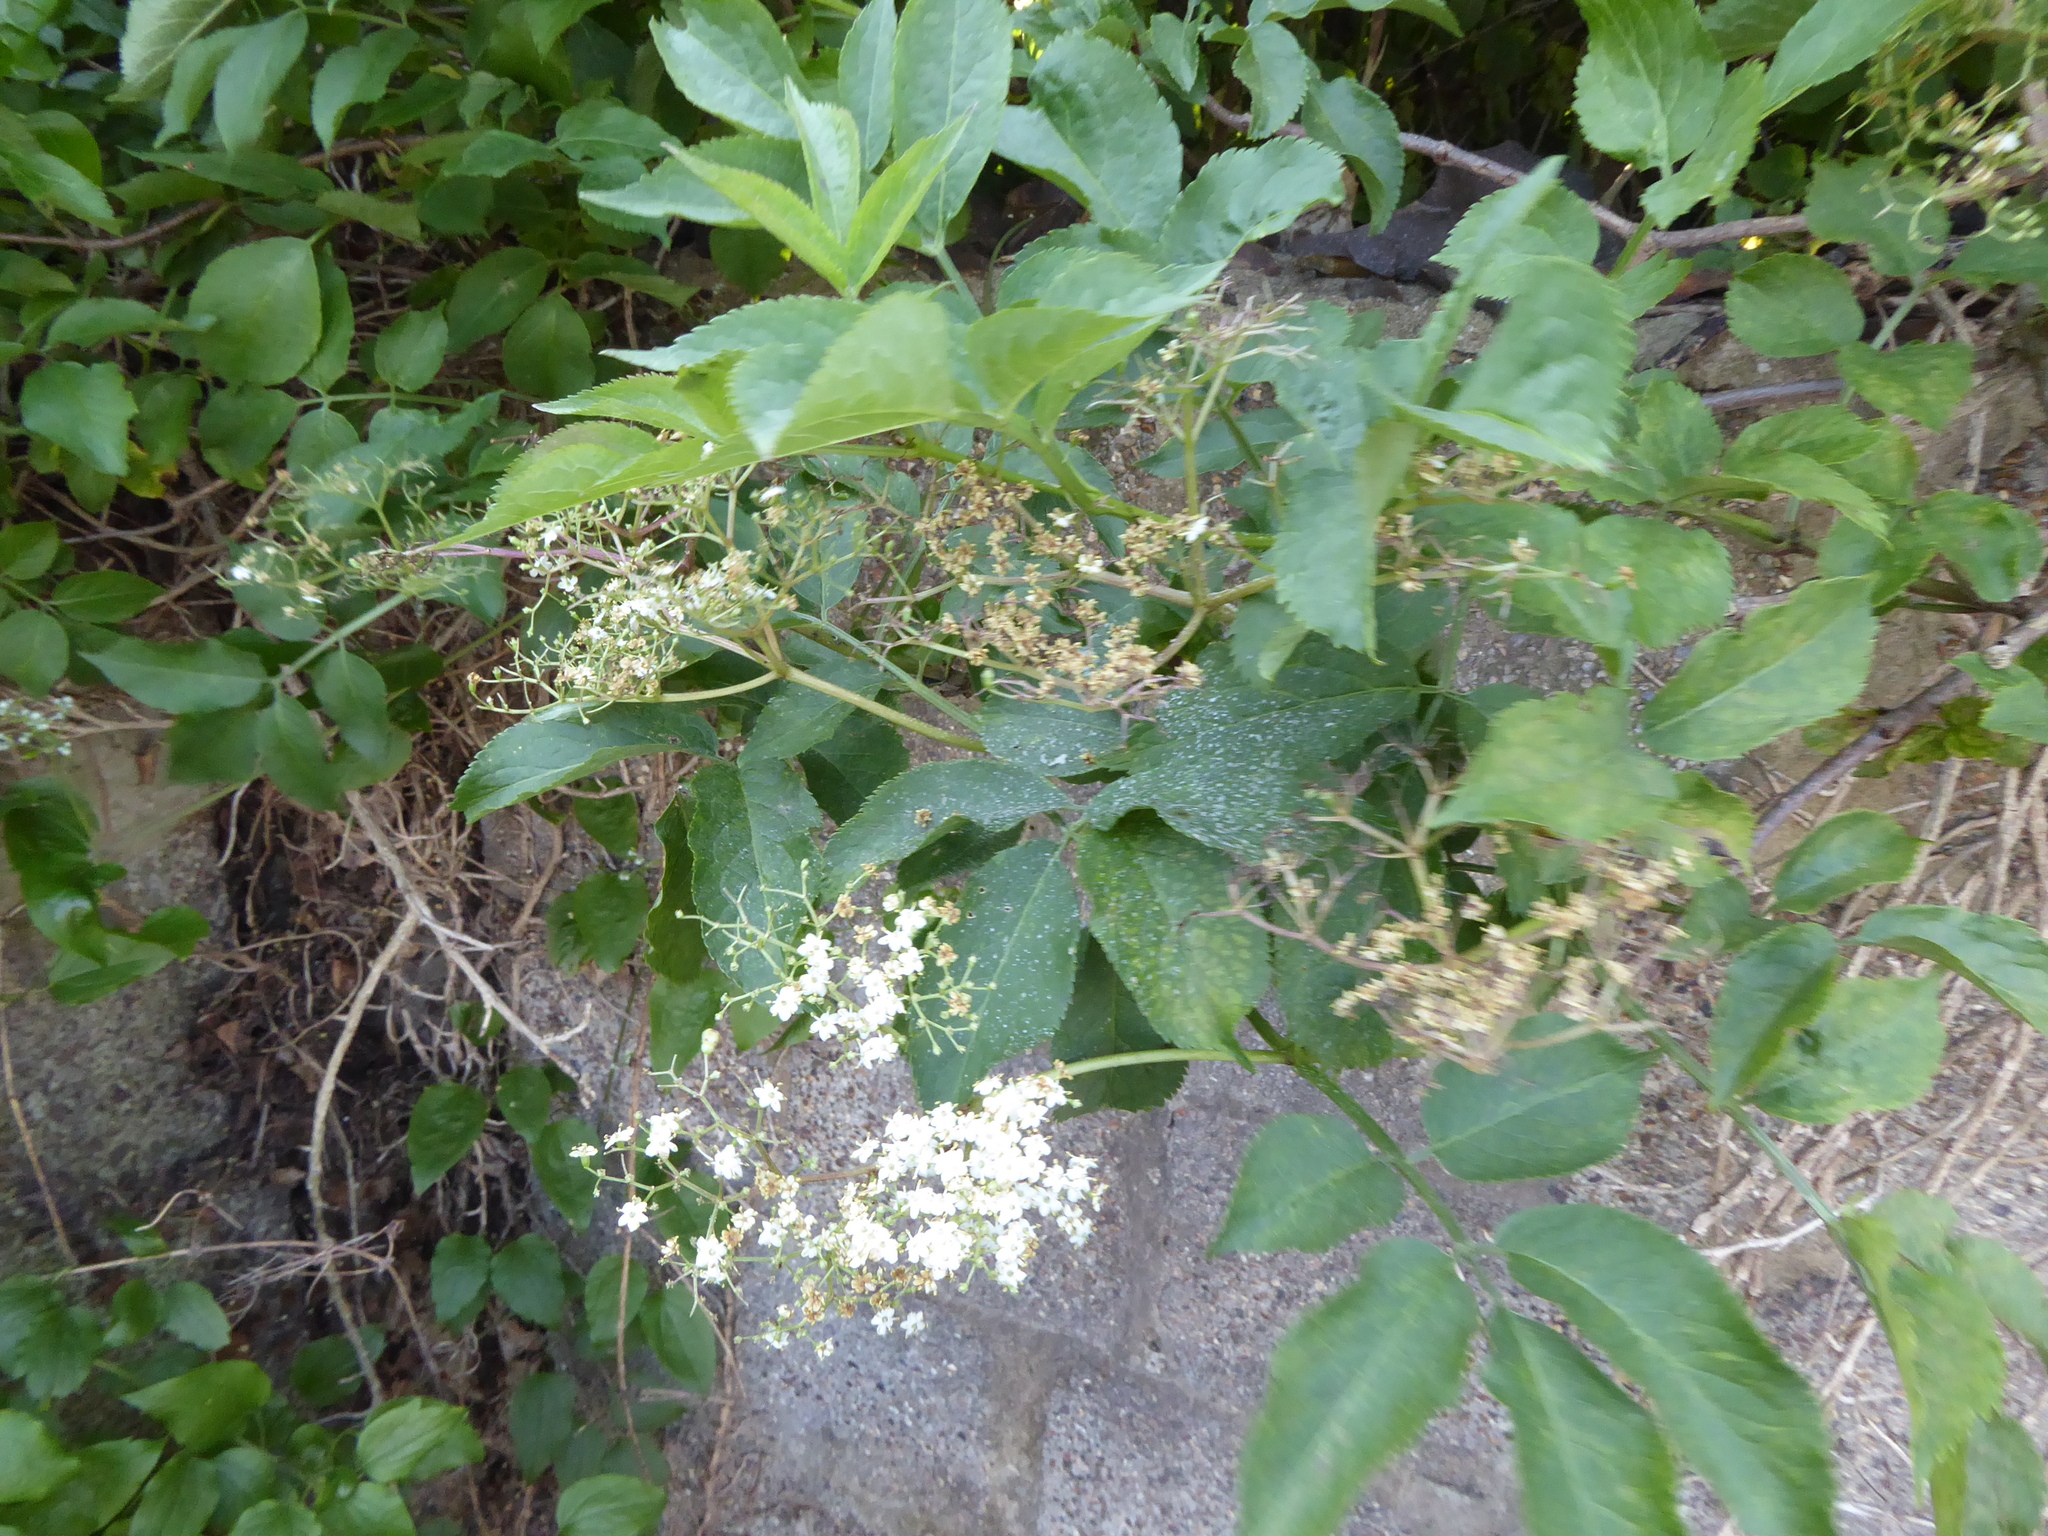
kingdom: Plantae
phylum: Tracheophyta
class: Magnoliopsida
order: Dipsacales
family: Viburnaceae
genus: Sambucus
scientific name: Sambucus nigra
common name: Elder
